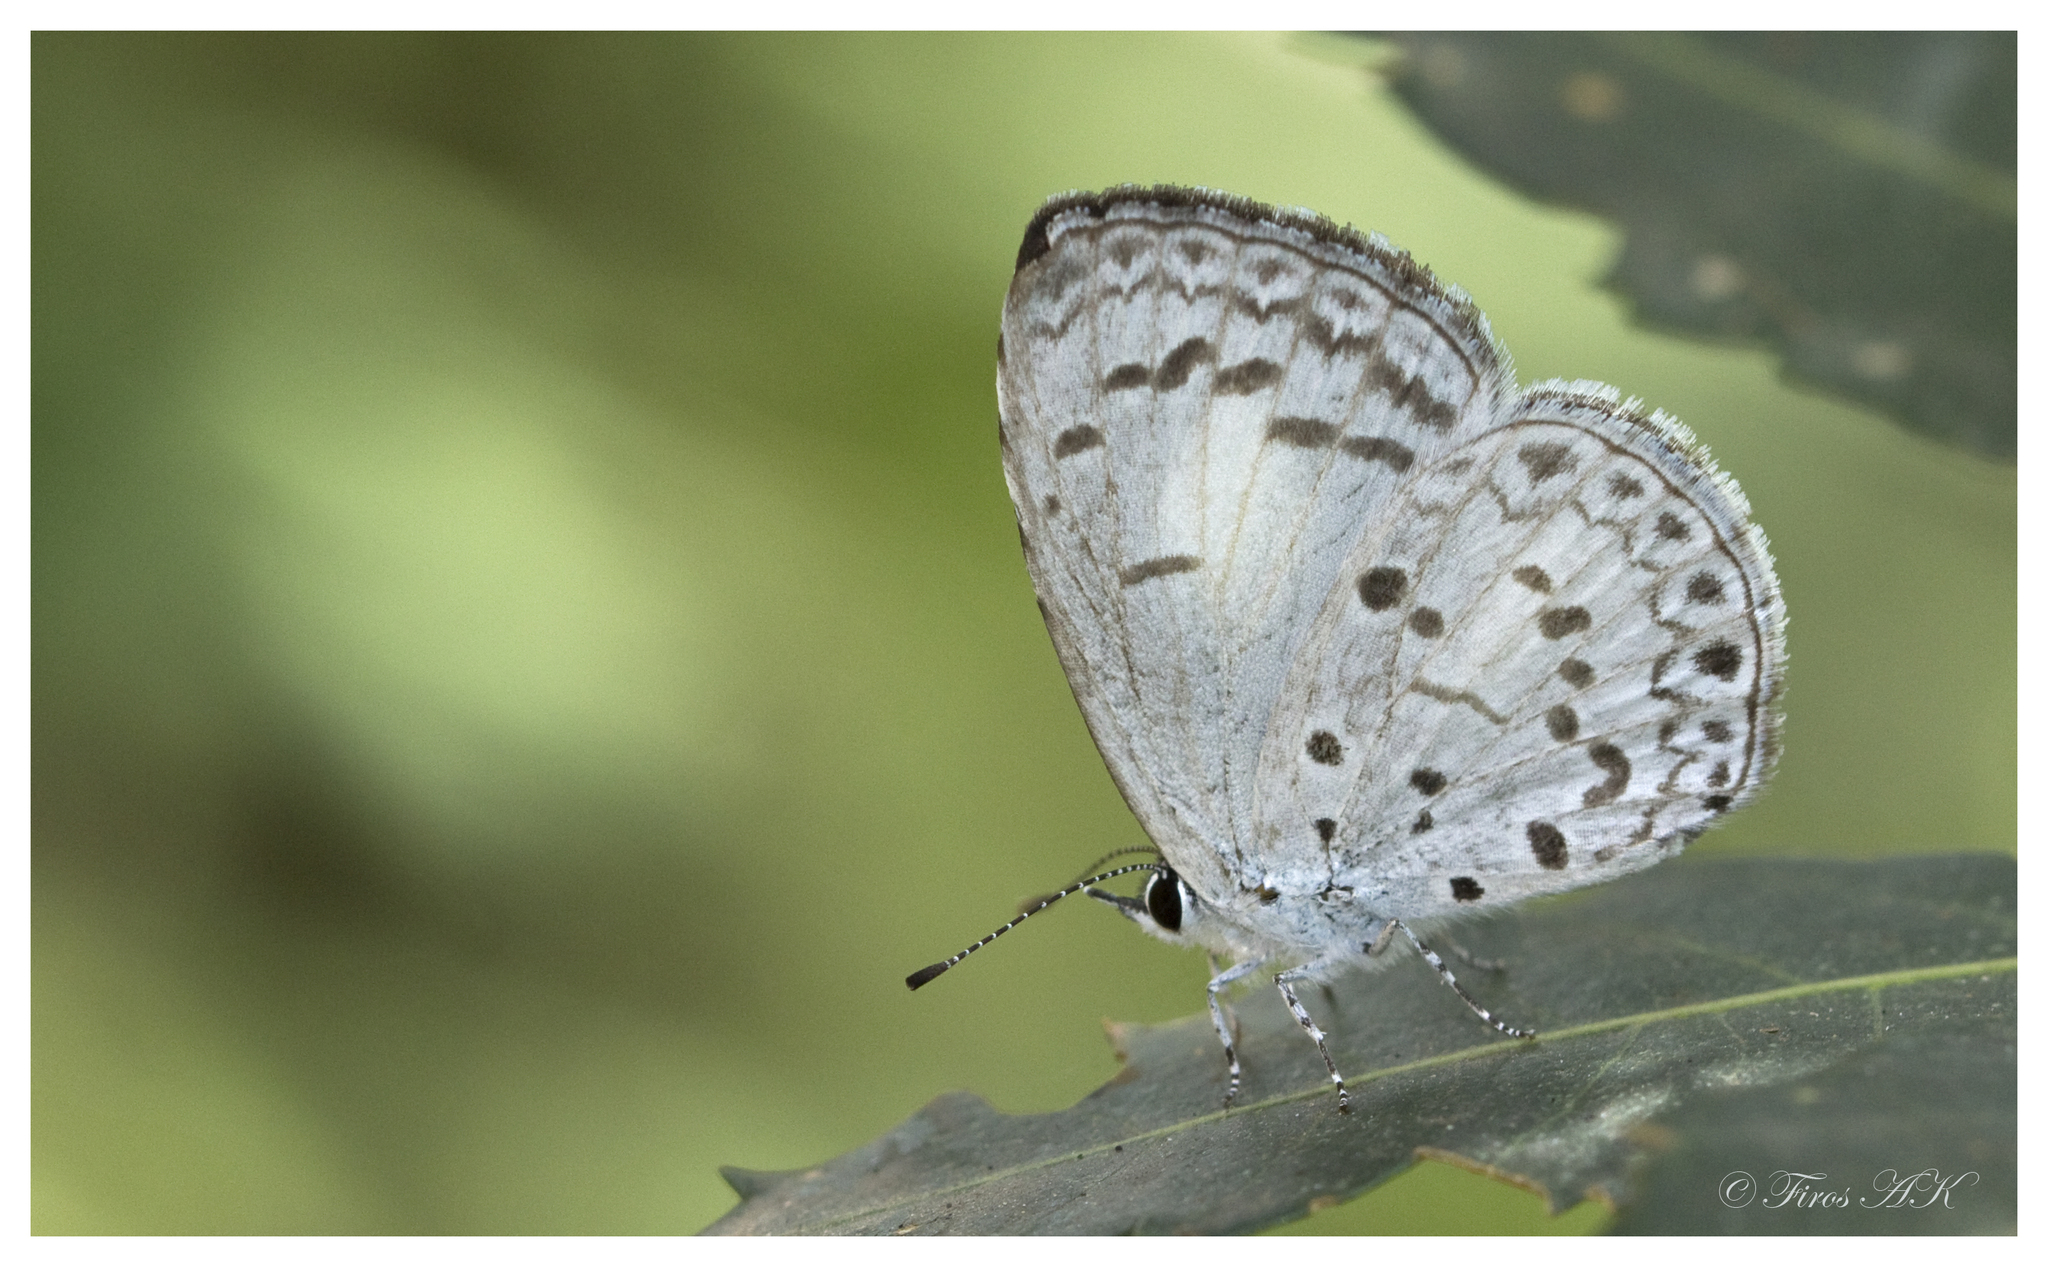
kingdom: Animalia
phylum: Arthropoda
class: Insecta
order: Lepidoptera
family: Lycaenidae
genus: Acytolepis
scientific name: Acytolepis puspa
